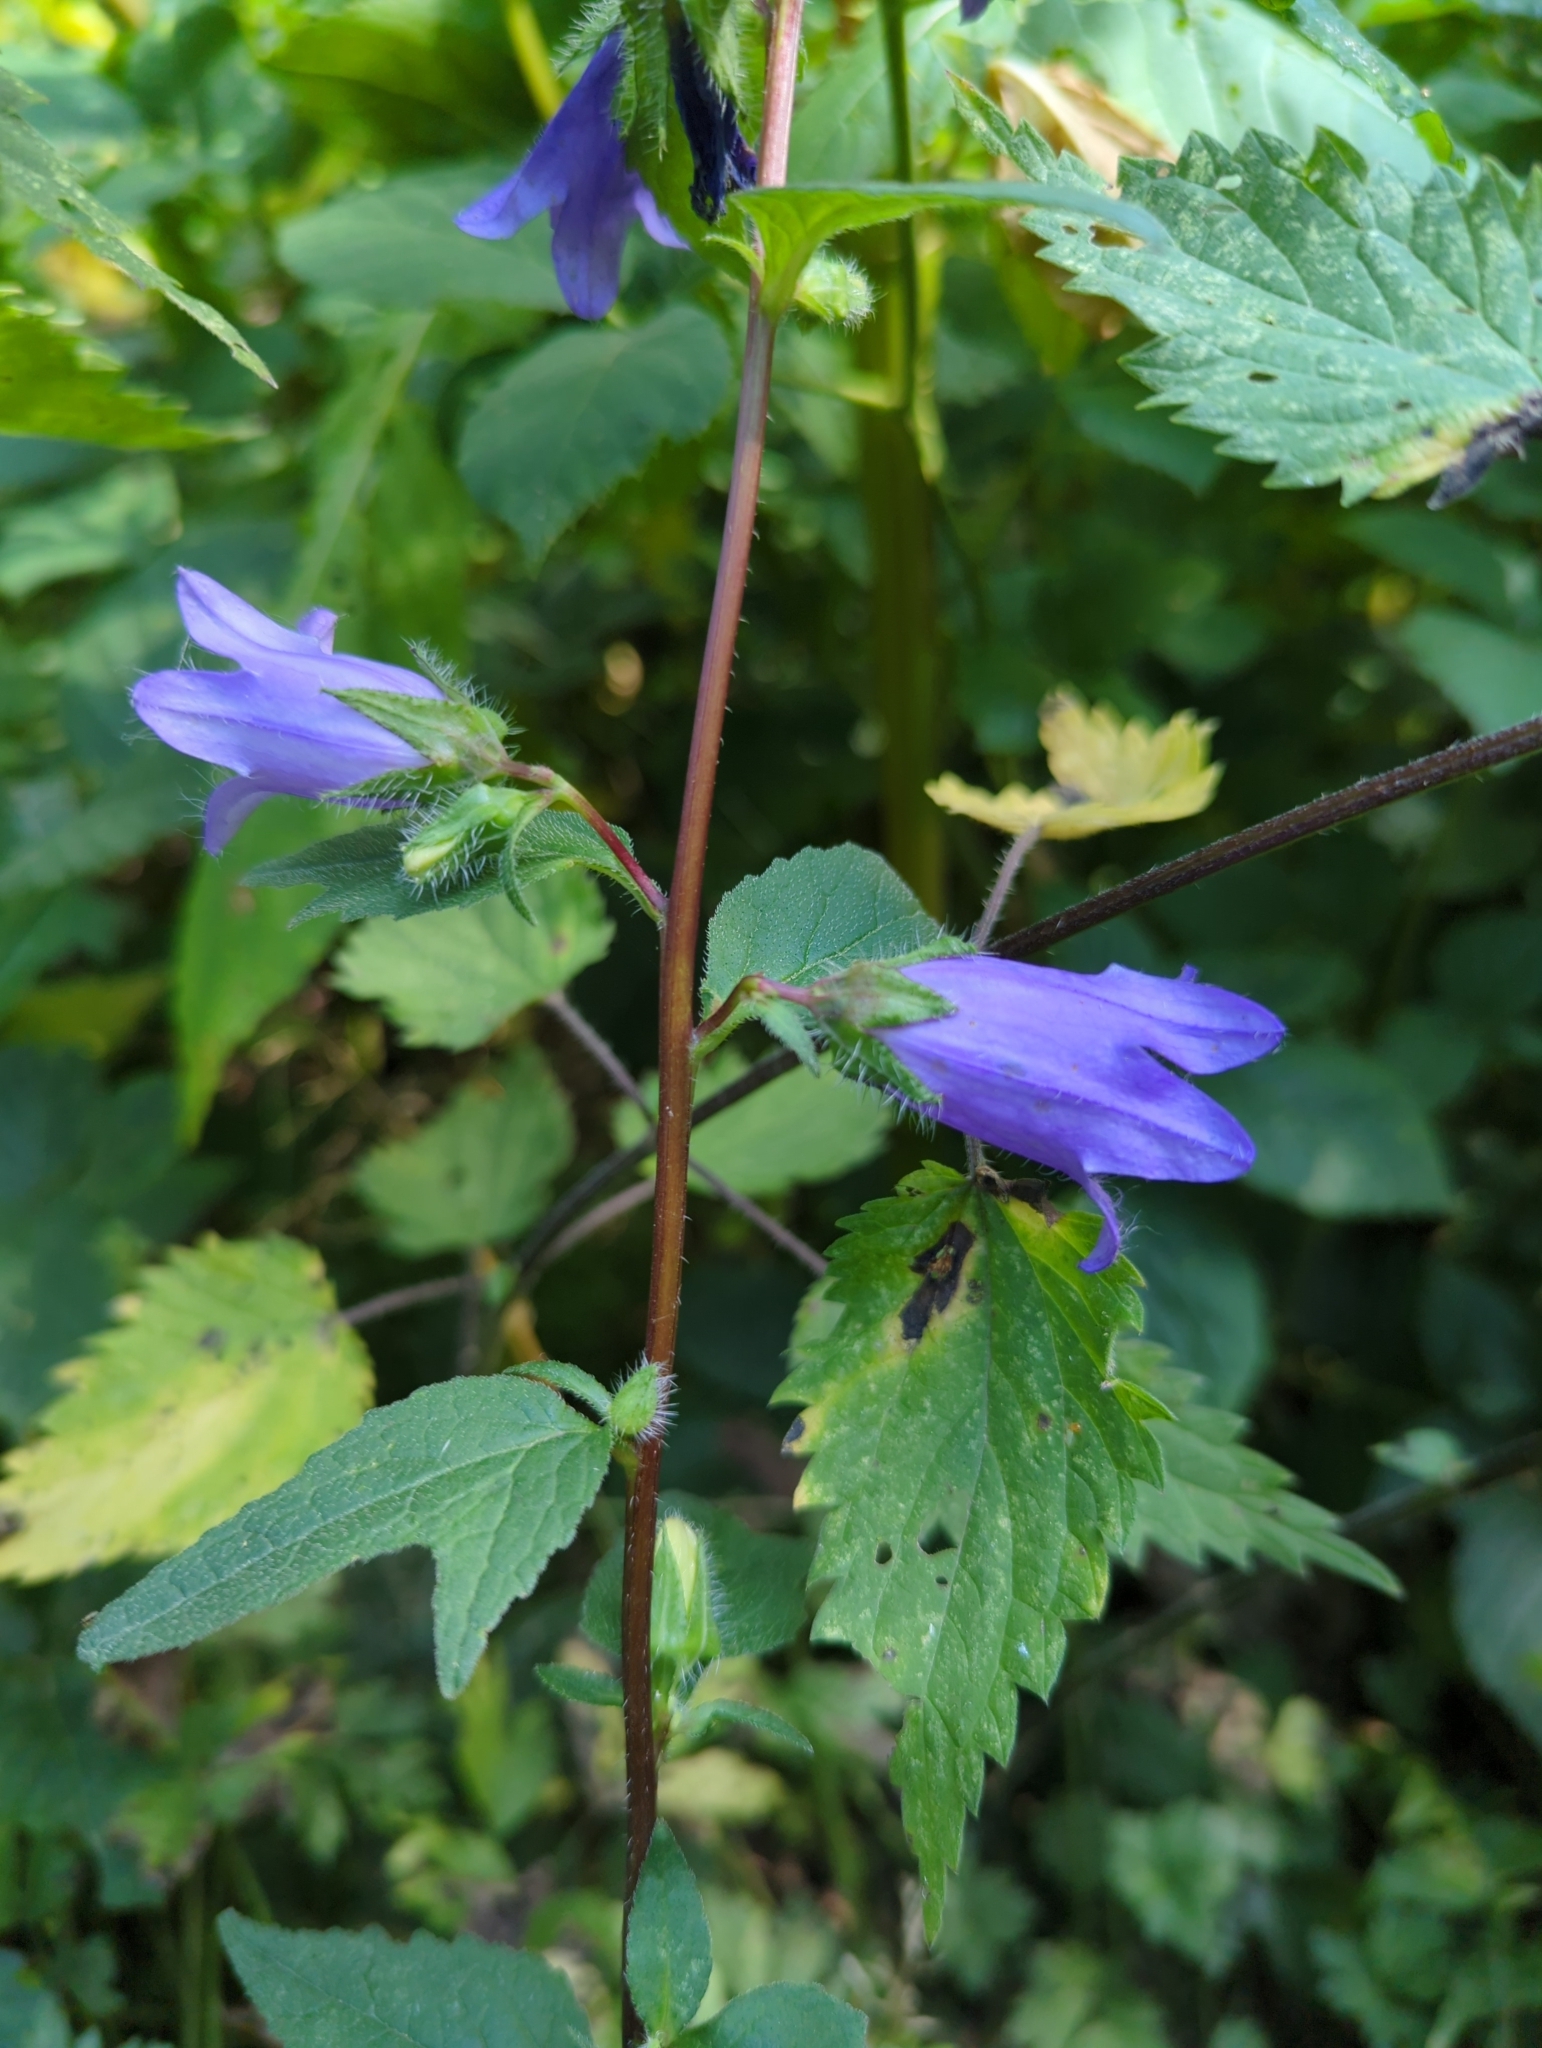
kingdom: Plantae
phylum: Tracheophyta
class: Magnoliopsida
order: Asterales
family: Campanulaceae
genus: Campanula
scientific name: Campanula trachelium
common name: Nettle-leaved bellflower
